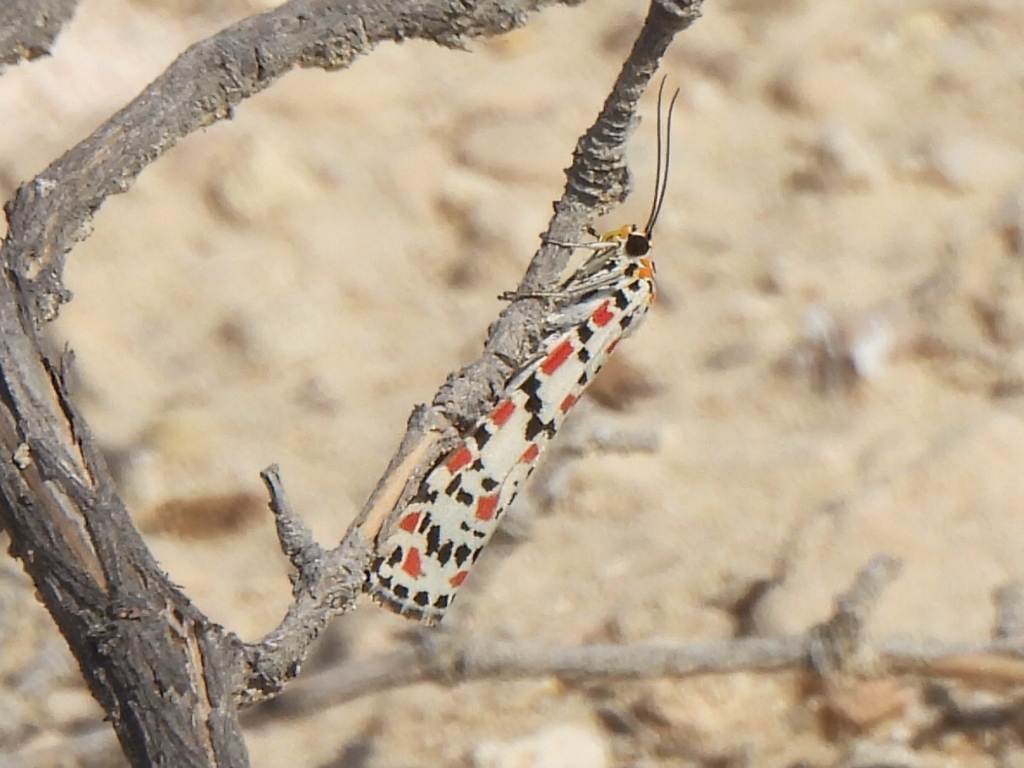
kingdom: Animalia
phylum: Arthropoda
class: Insecta
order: Lepidoptera
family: Erebidae
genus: Utetheisa
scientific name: Utetheisa pulchella
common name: Crimson speckled
